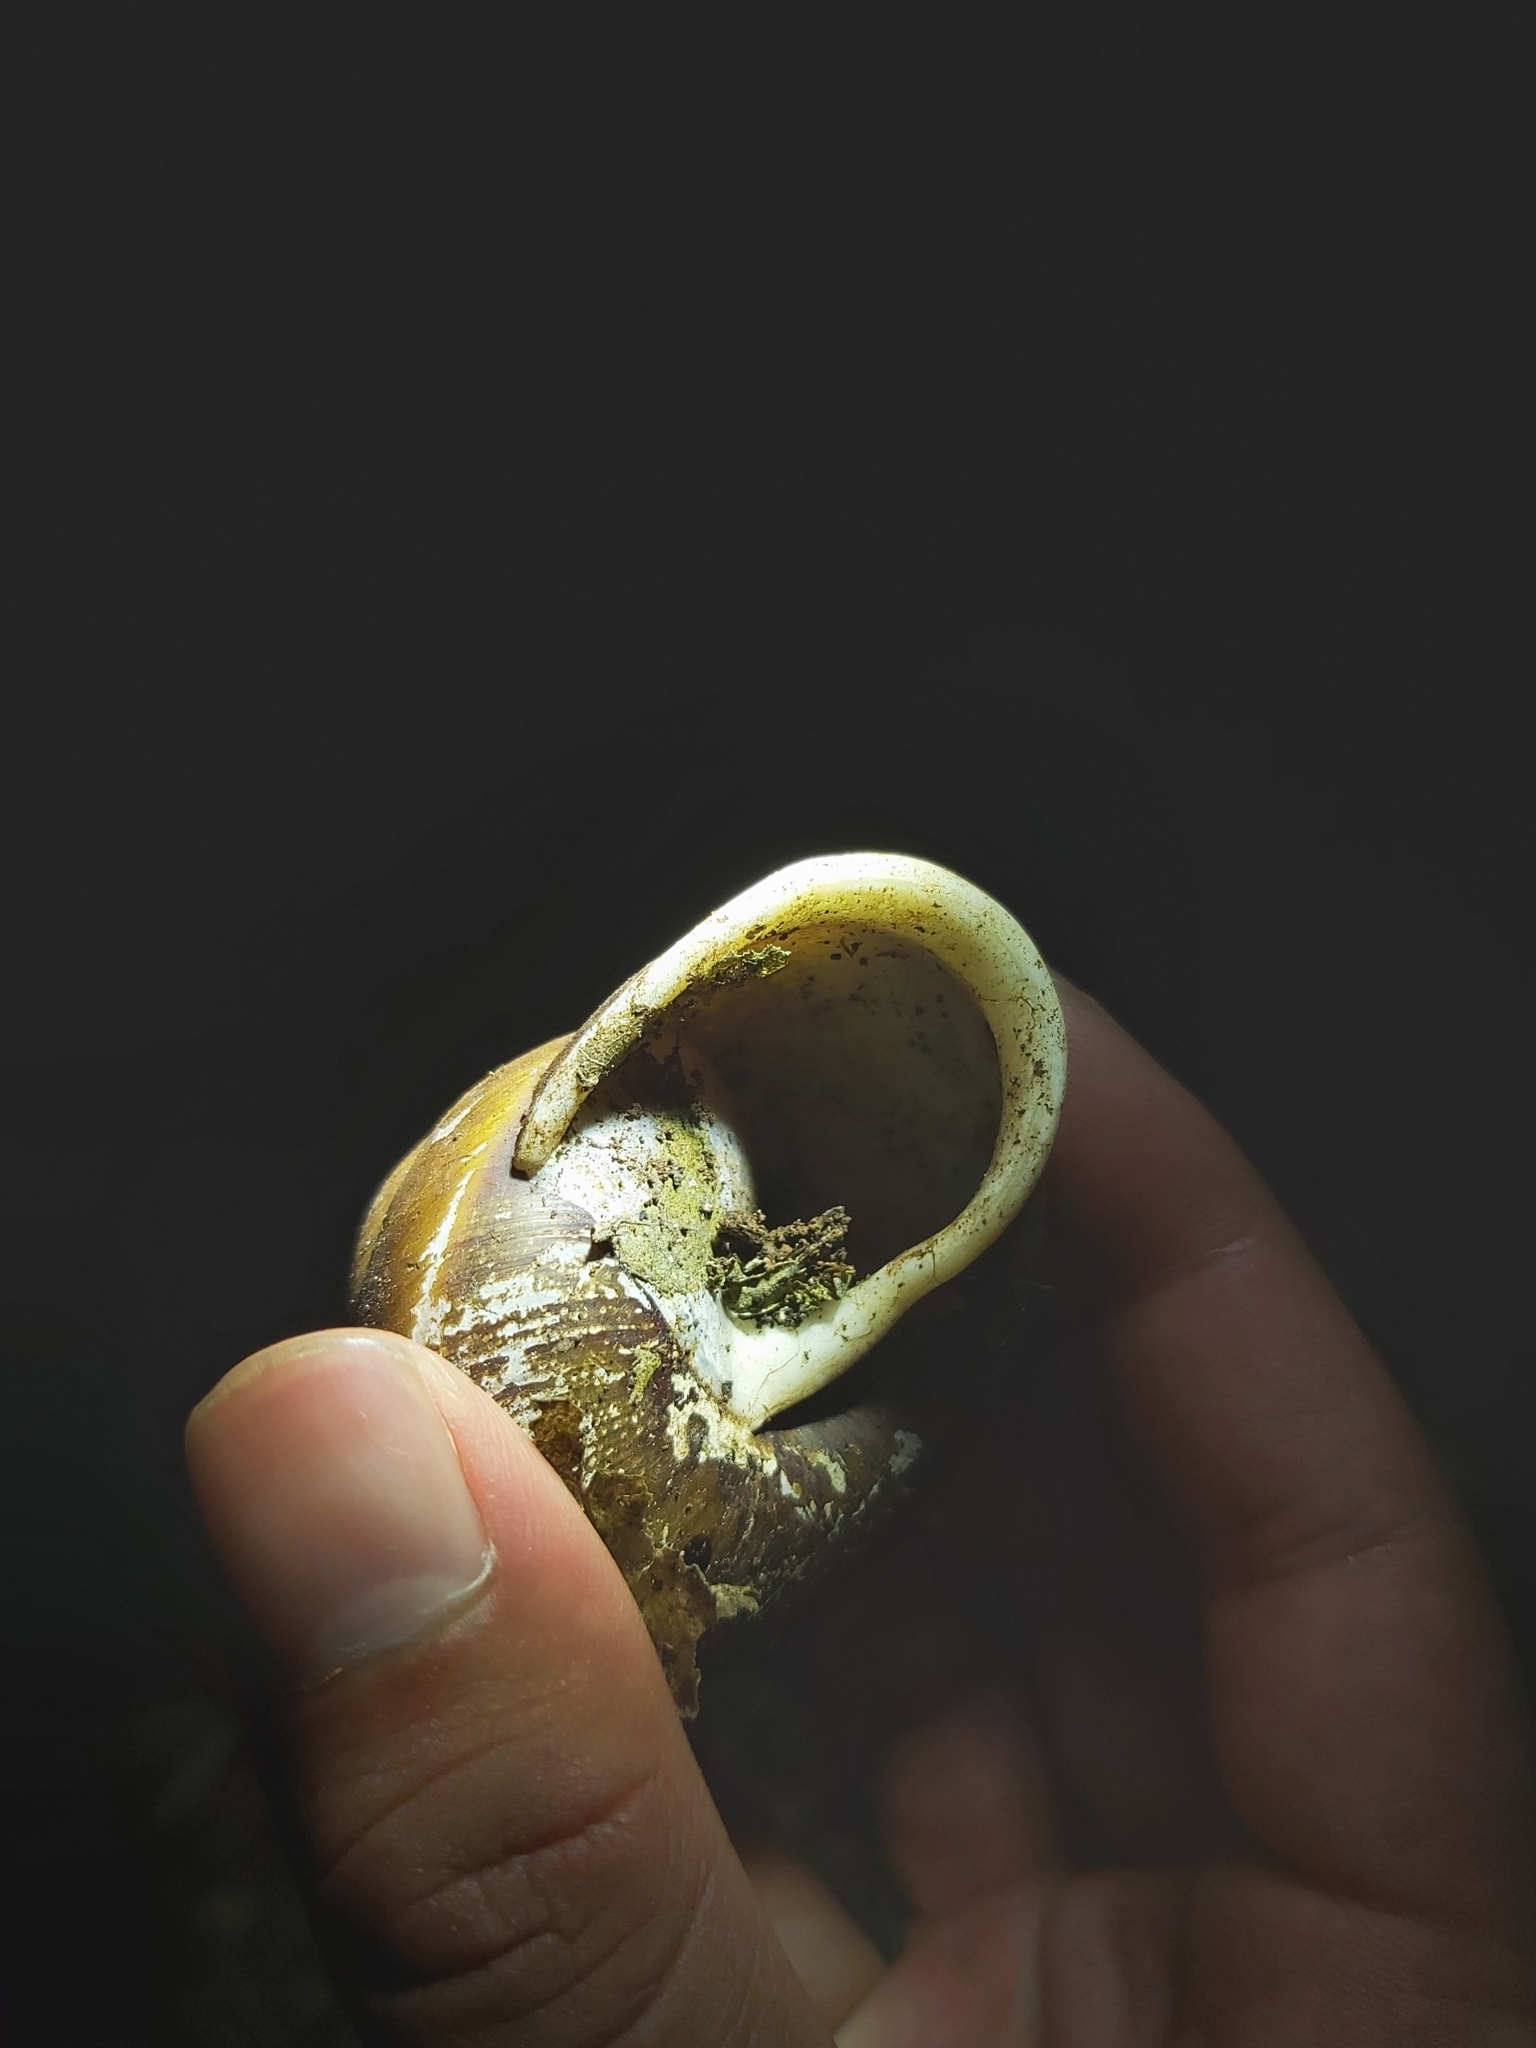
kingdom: Animalia
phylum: Mollusca
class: Gastropoda
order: Stylommatophora
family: Camaenidae
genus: Hadra
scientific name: Hadra bipartita
